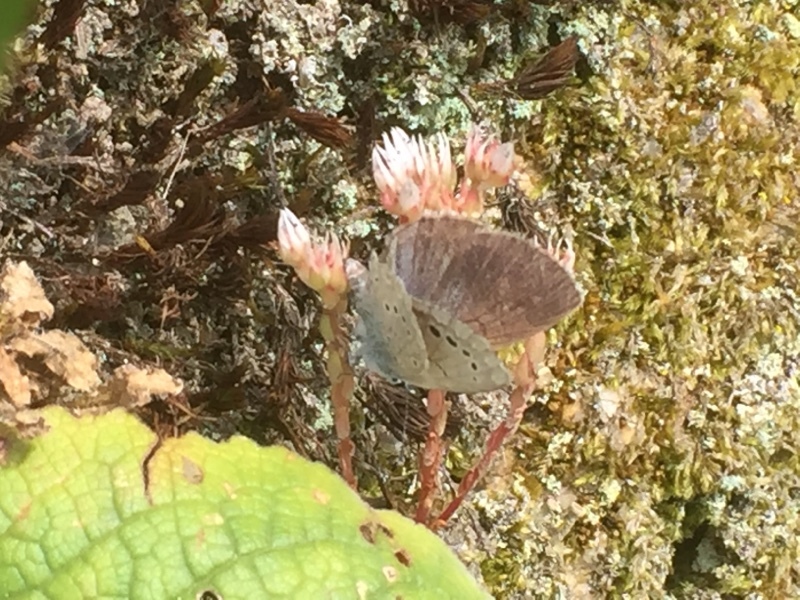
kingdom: Animalia
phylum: Arthropoda
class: Insecta
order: Lepidoptera
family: Lycaenidae
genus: Glaucopsyche
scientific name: Glaucopsyche melanops
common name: Black-eyed blue
